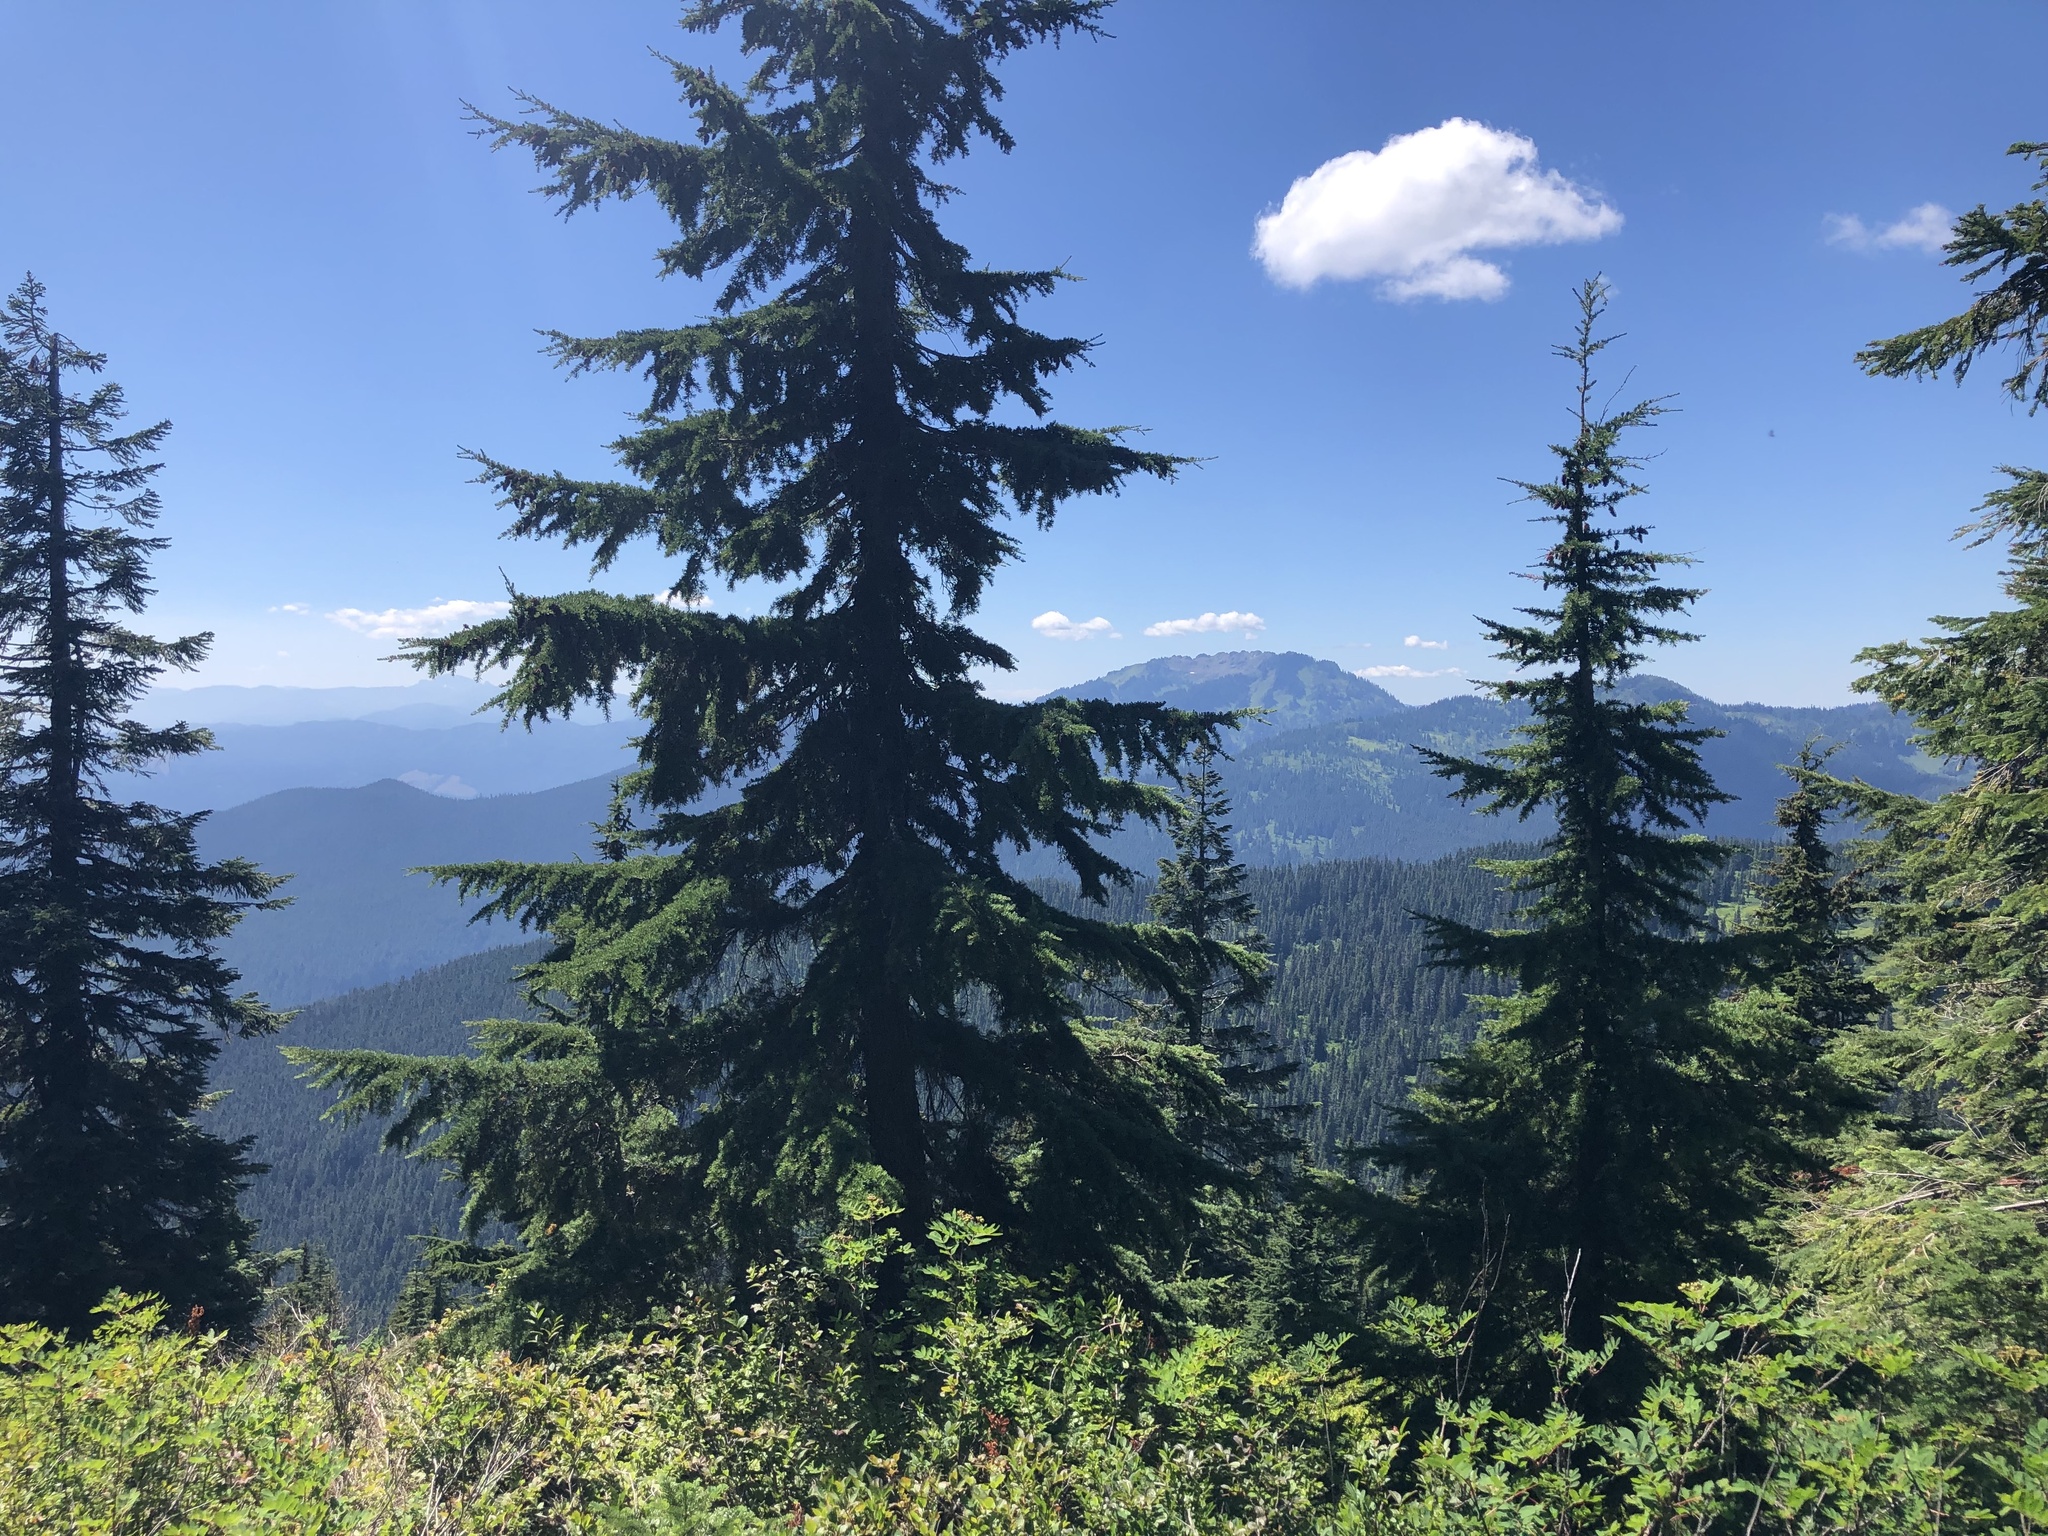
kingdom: Plantae
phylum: Tracheophyta
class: Pinopsida
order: Pinales
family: Pinaceae
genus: Tsuga
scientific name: Tsuga mertensiana
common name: Mountain hemlock
